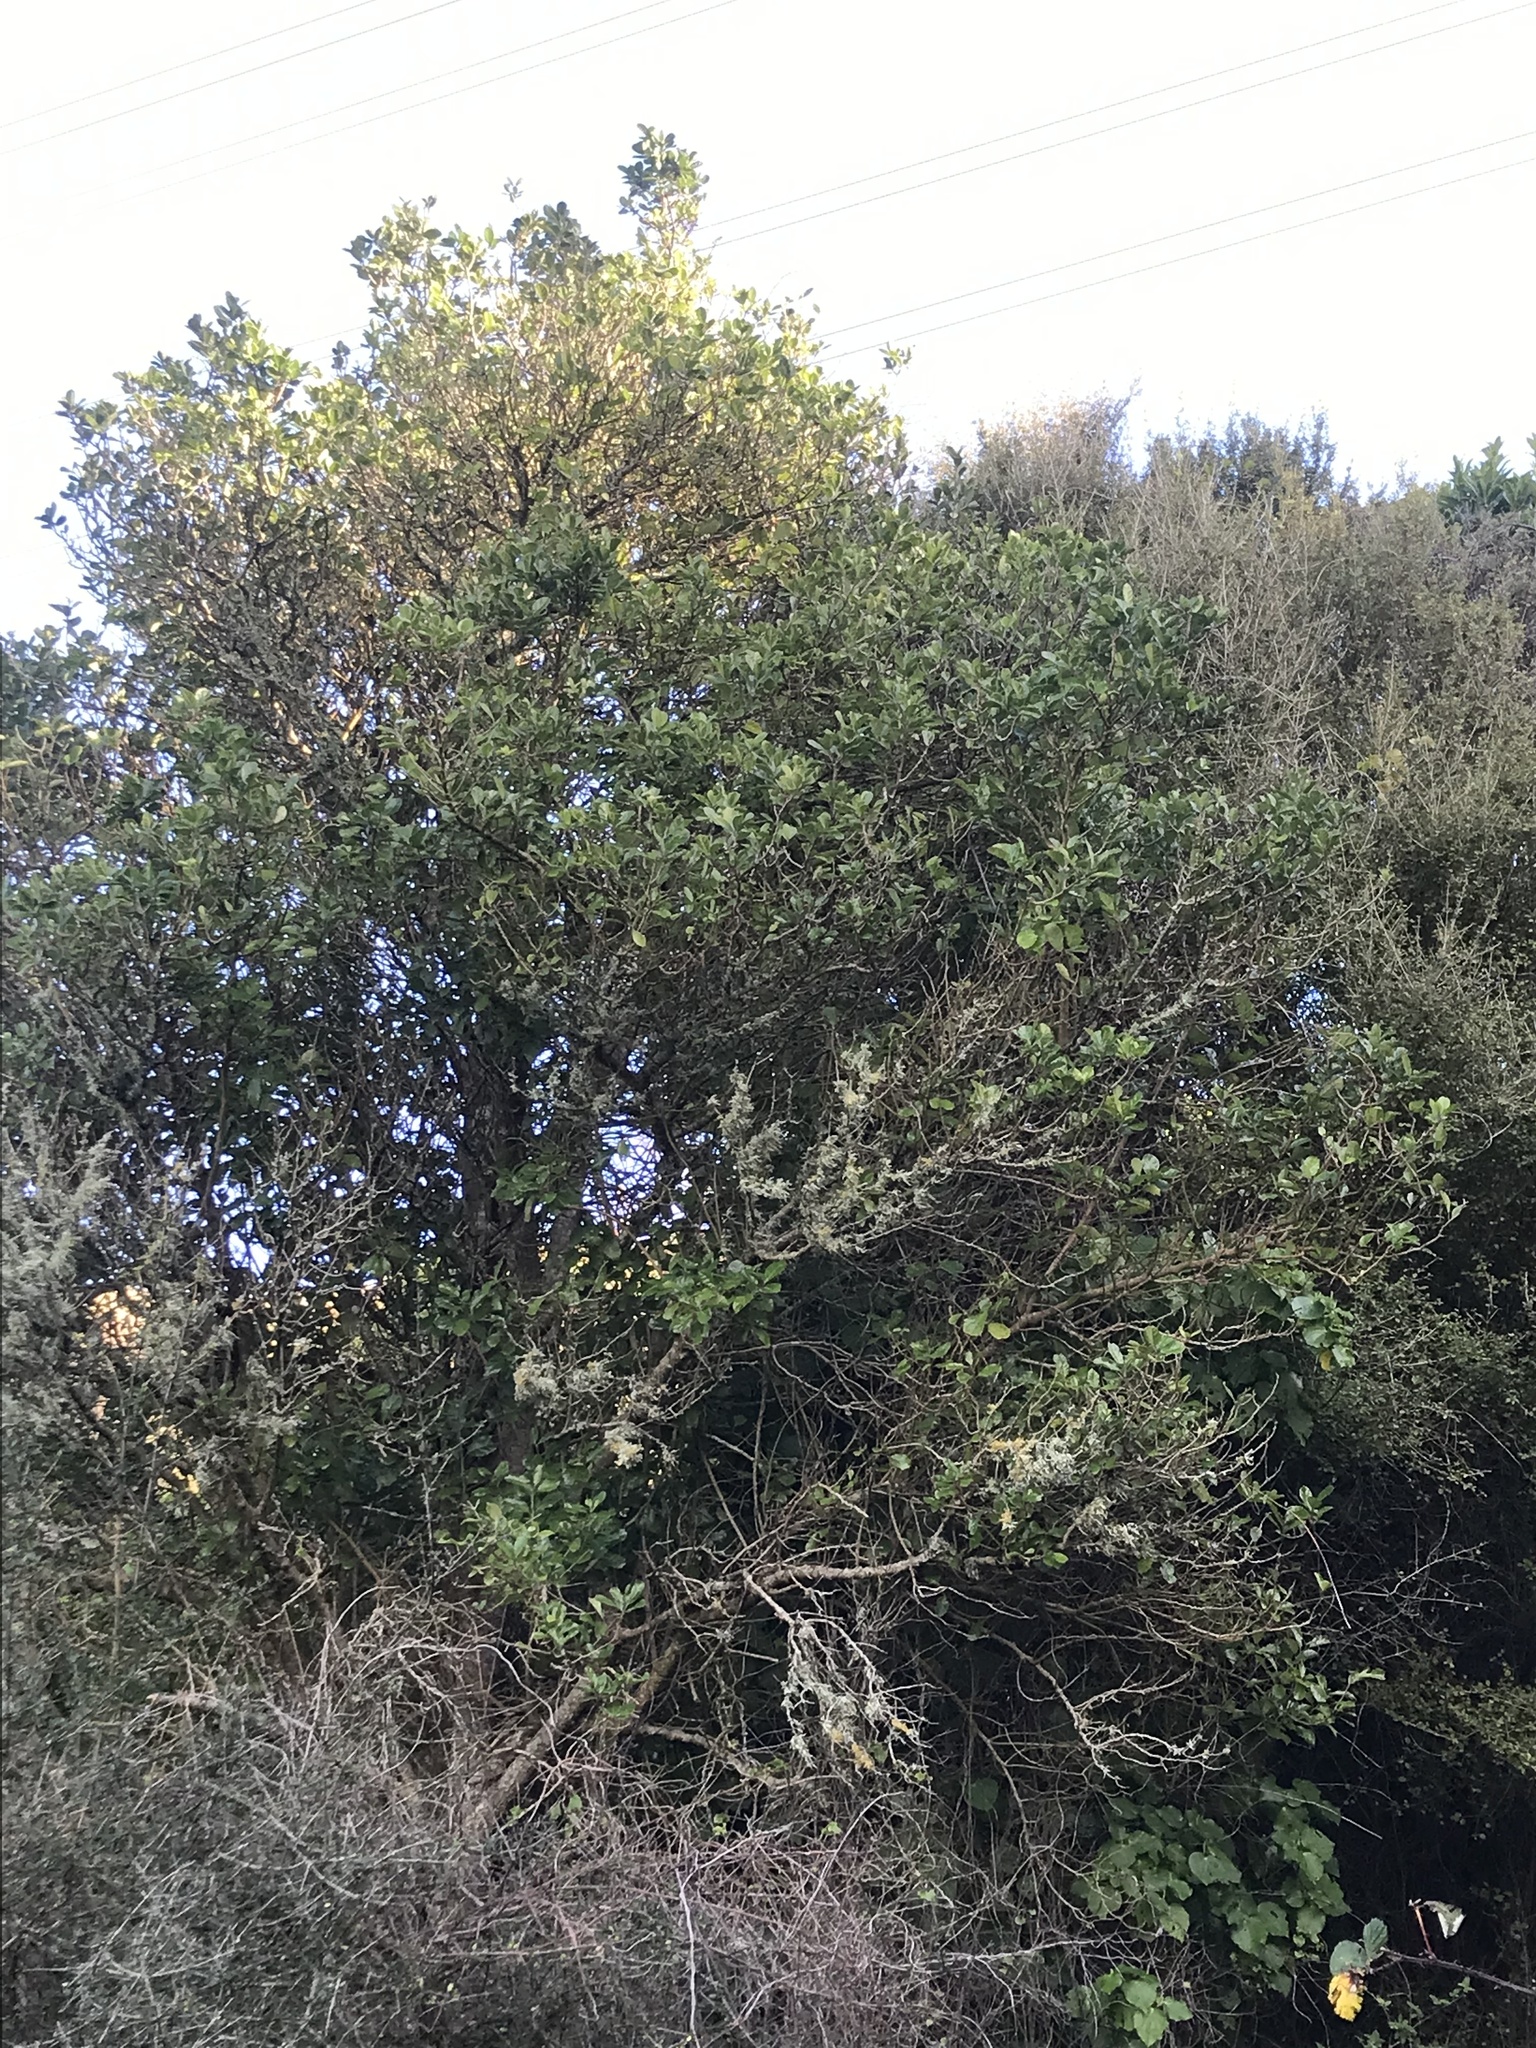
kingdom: Plantae
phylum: Tracheophyta
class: Magnoliopsida
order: Apiales
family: Pennantiaceae
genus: Pennantia
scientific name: Pennantia corymbosa
